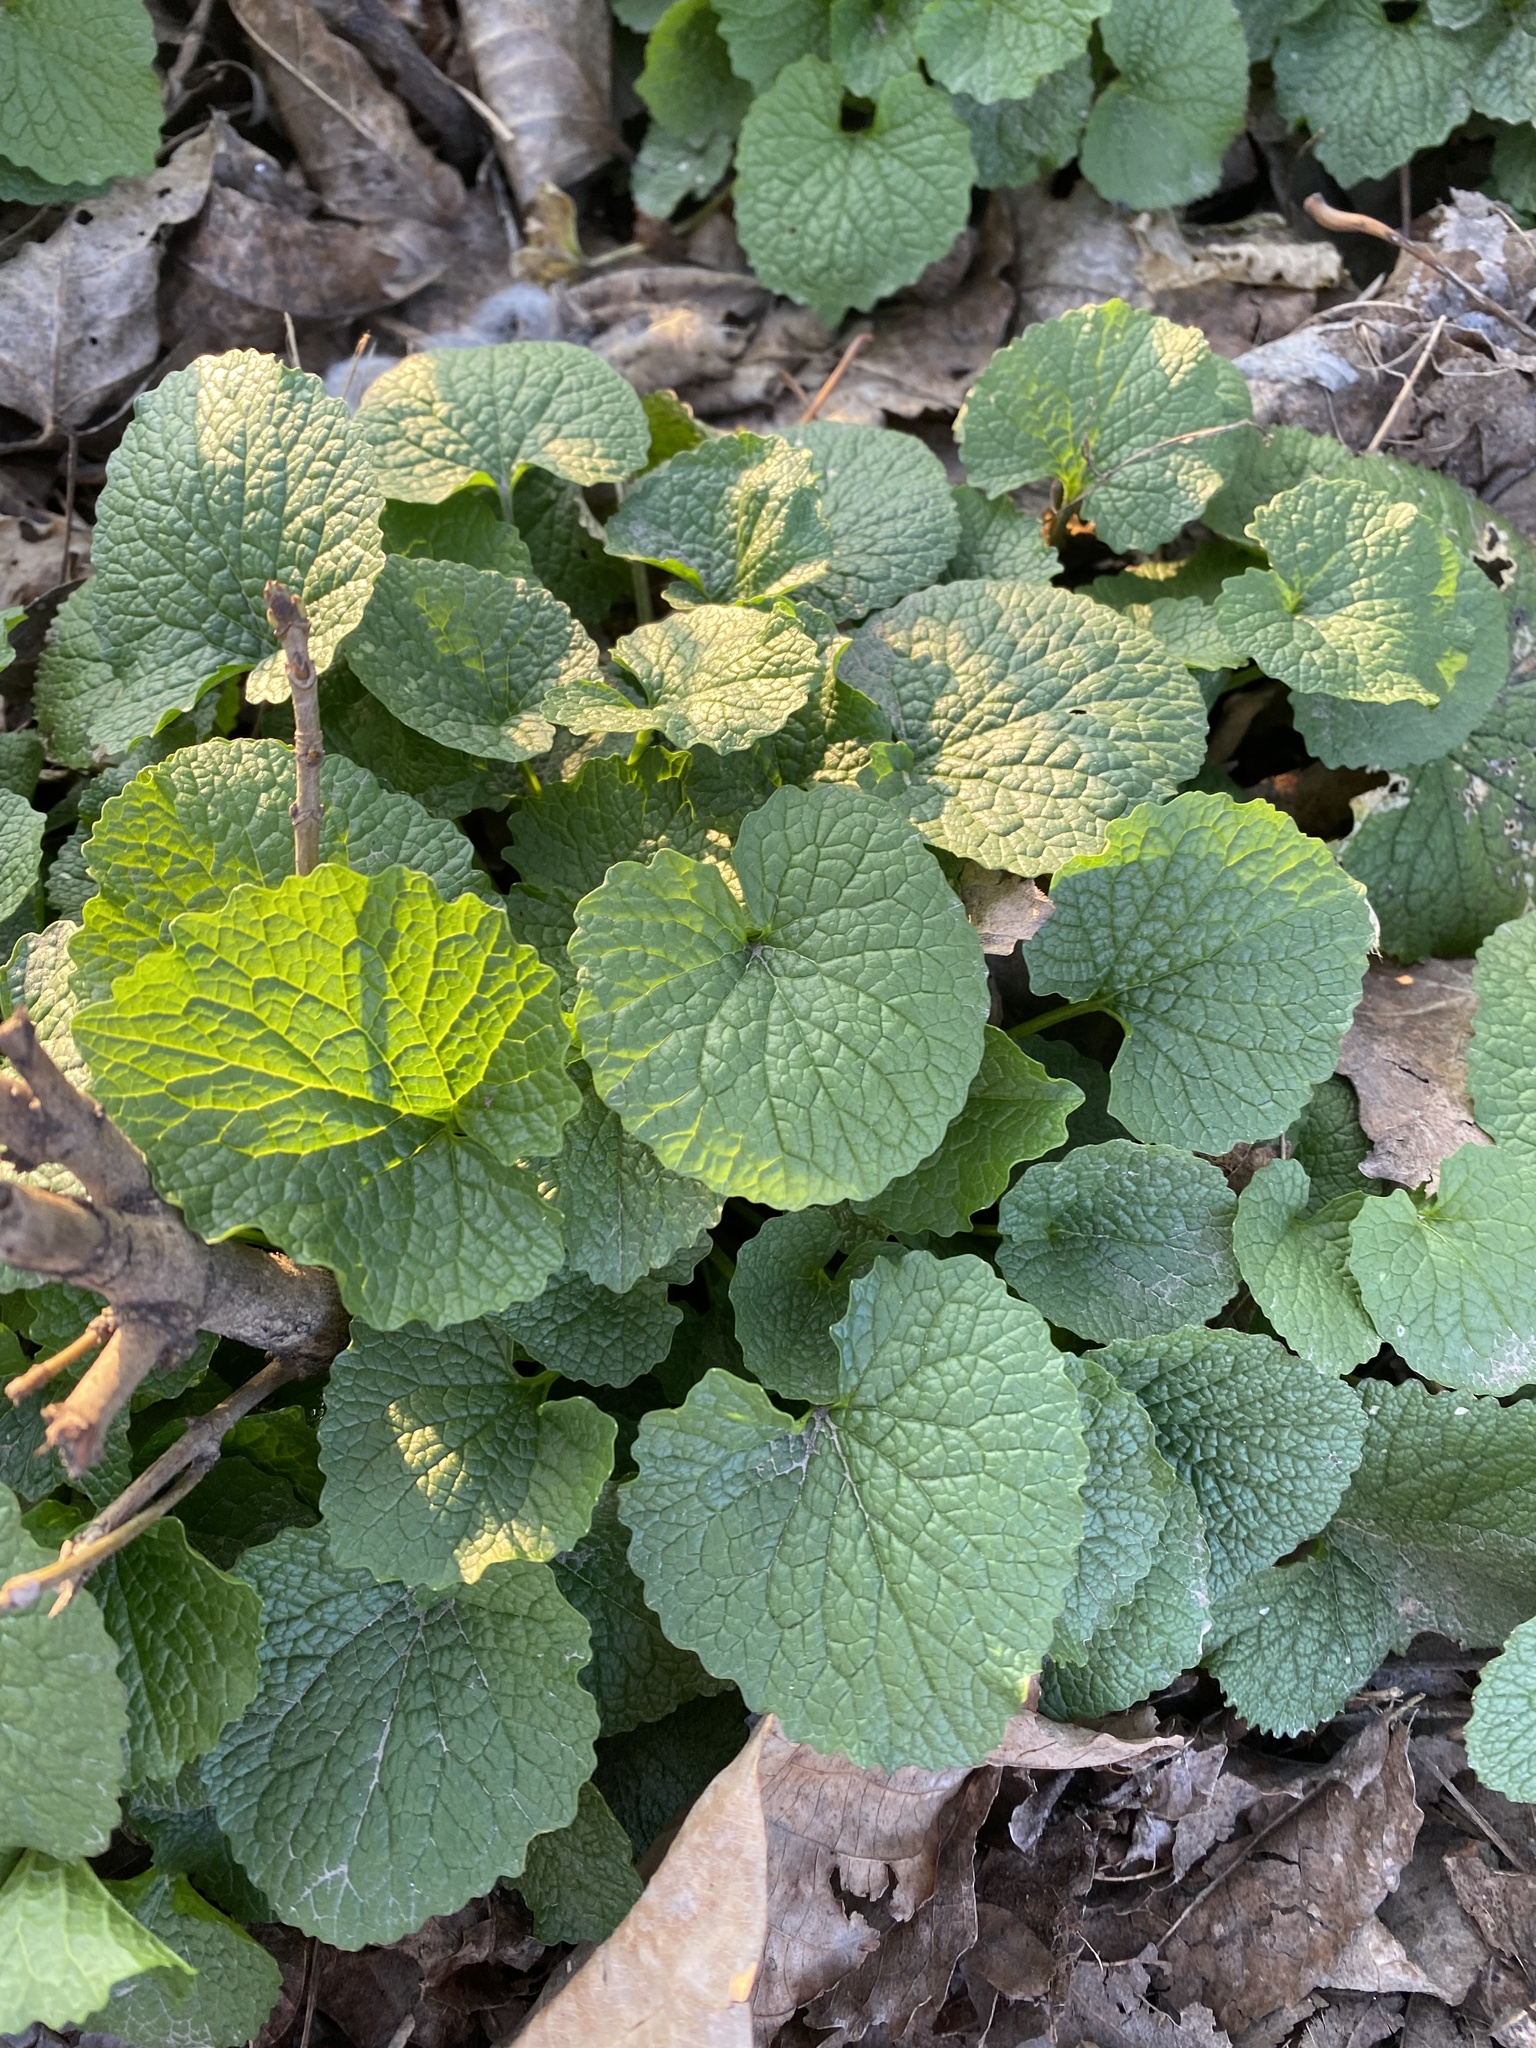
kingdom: Plantae
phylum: Tracheophyta
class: Magnoliopsida
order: Brassicales
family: Brassicaceae
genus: Alliaria
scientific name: Alliaria petiolata
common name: Garlic mustard
